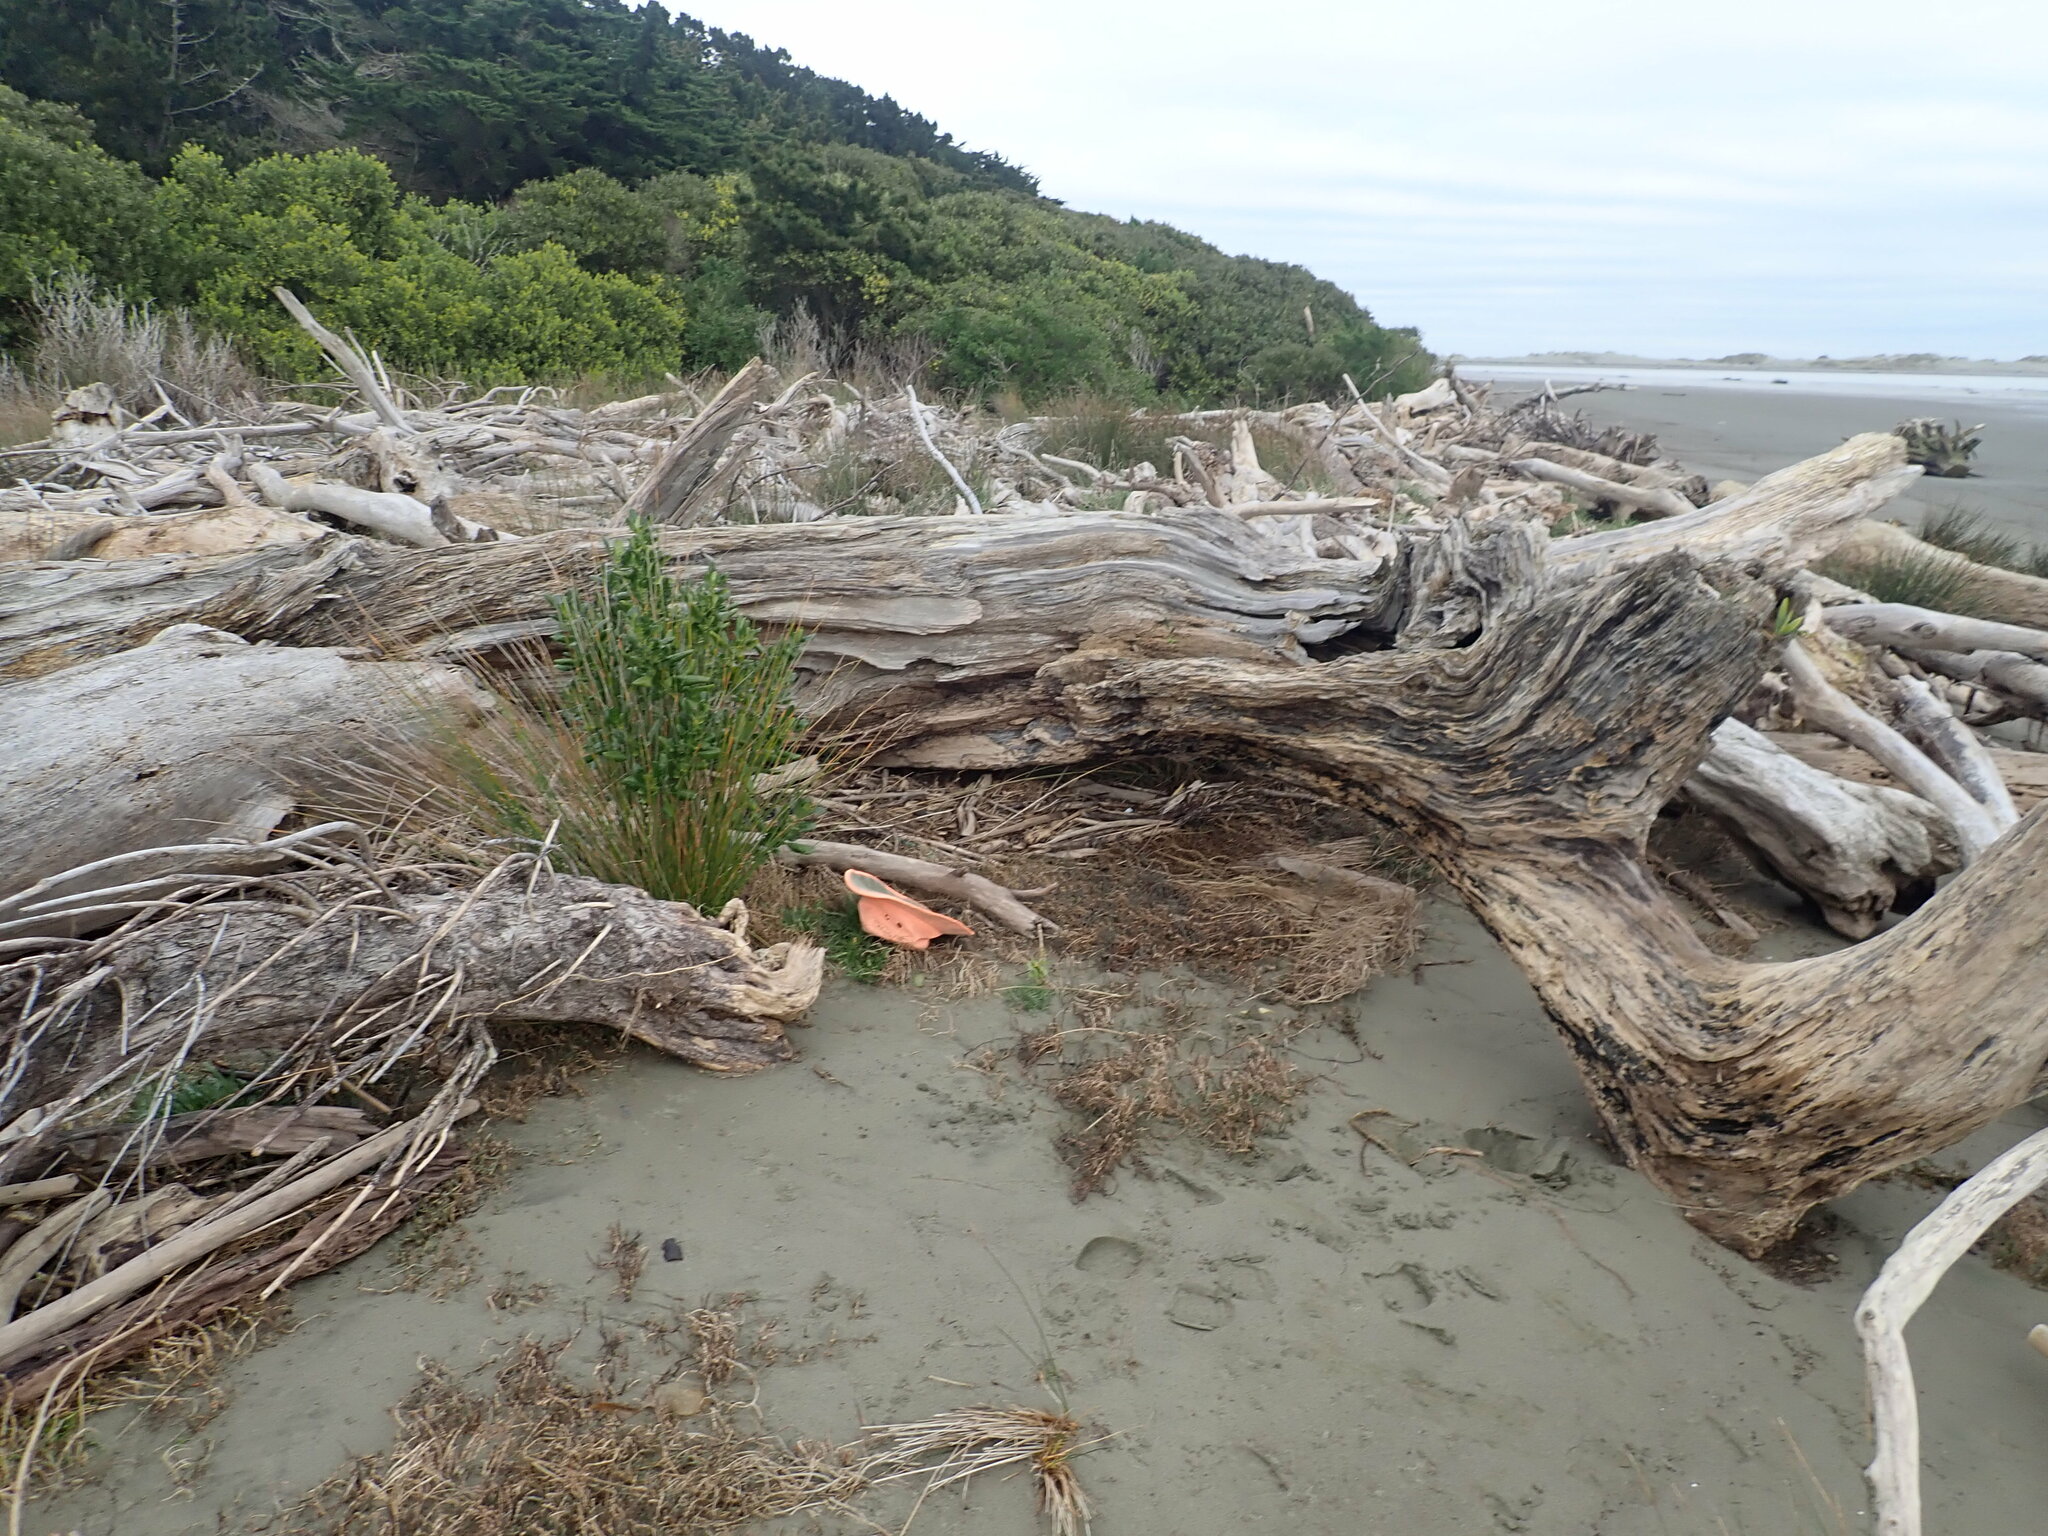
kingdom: Plantae
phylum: Tracheophyta
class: Magnoliopsida
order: Caryophyllales
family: Amaranthaceae
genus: Salicornia
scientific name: Salicornia quinqueflora
